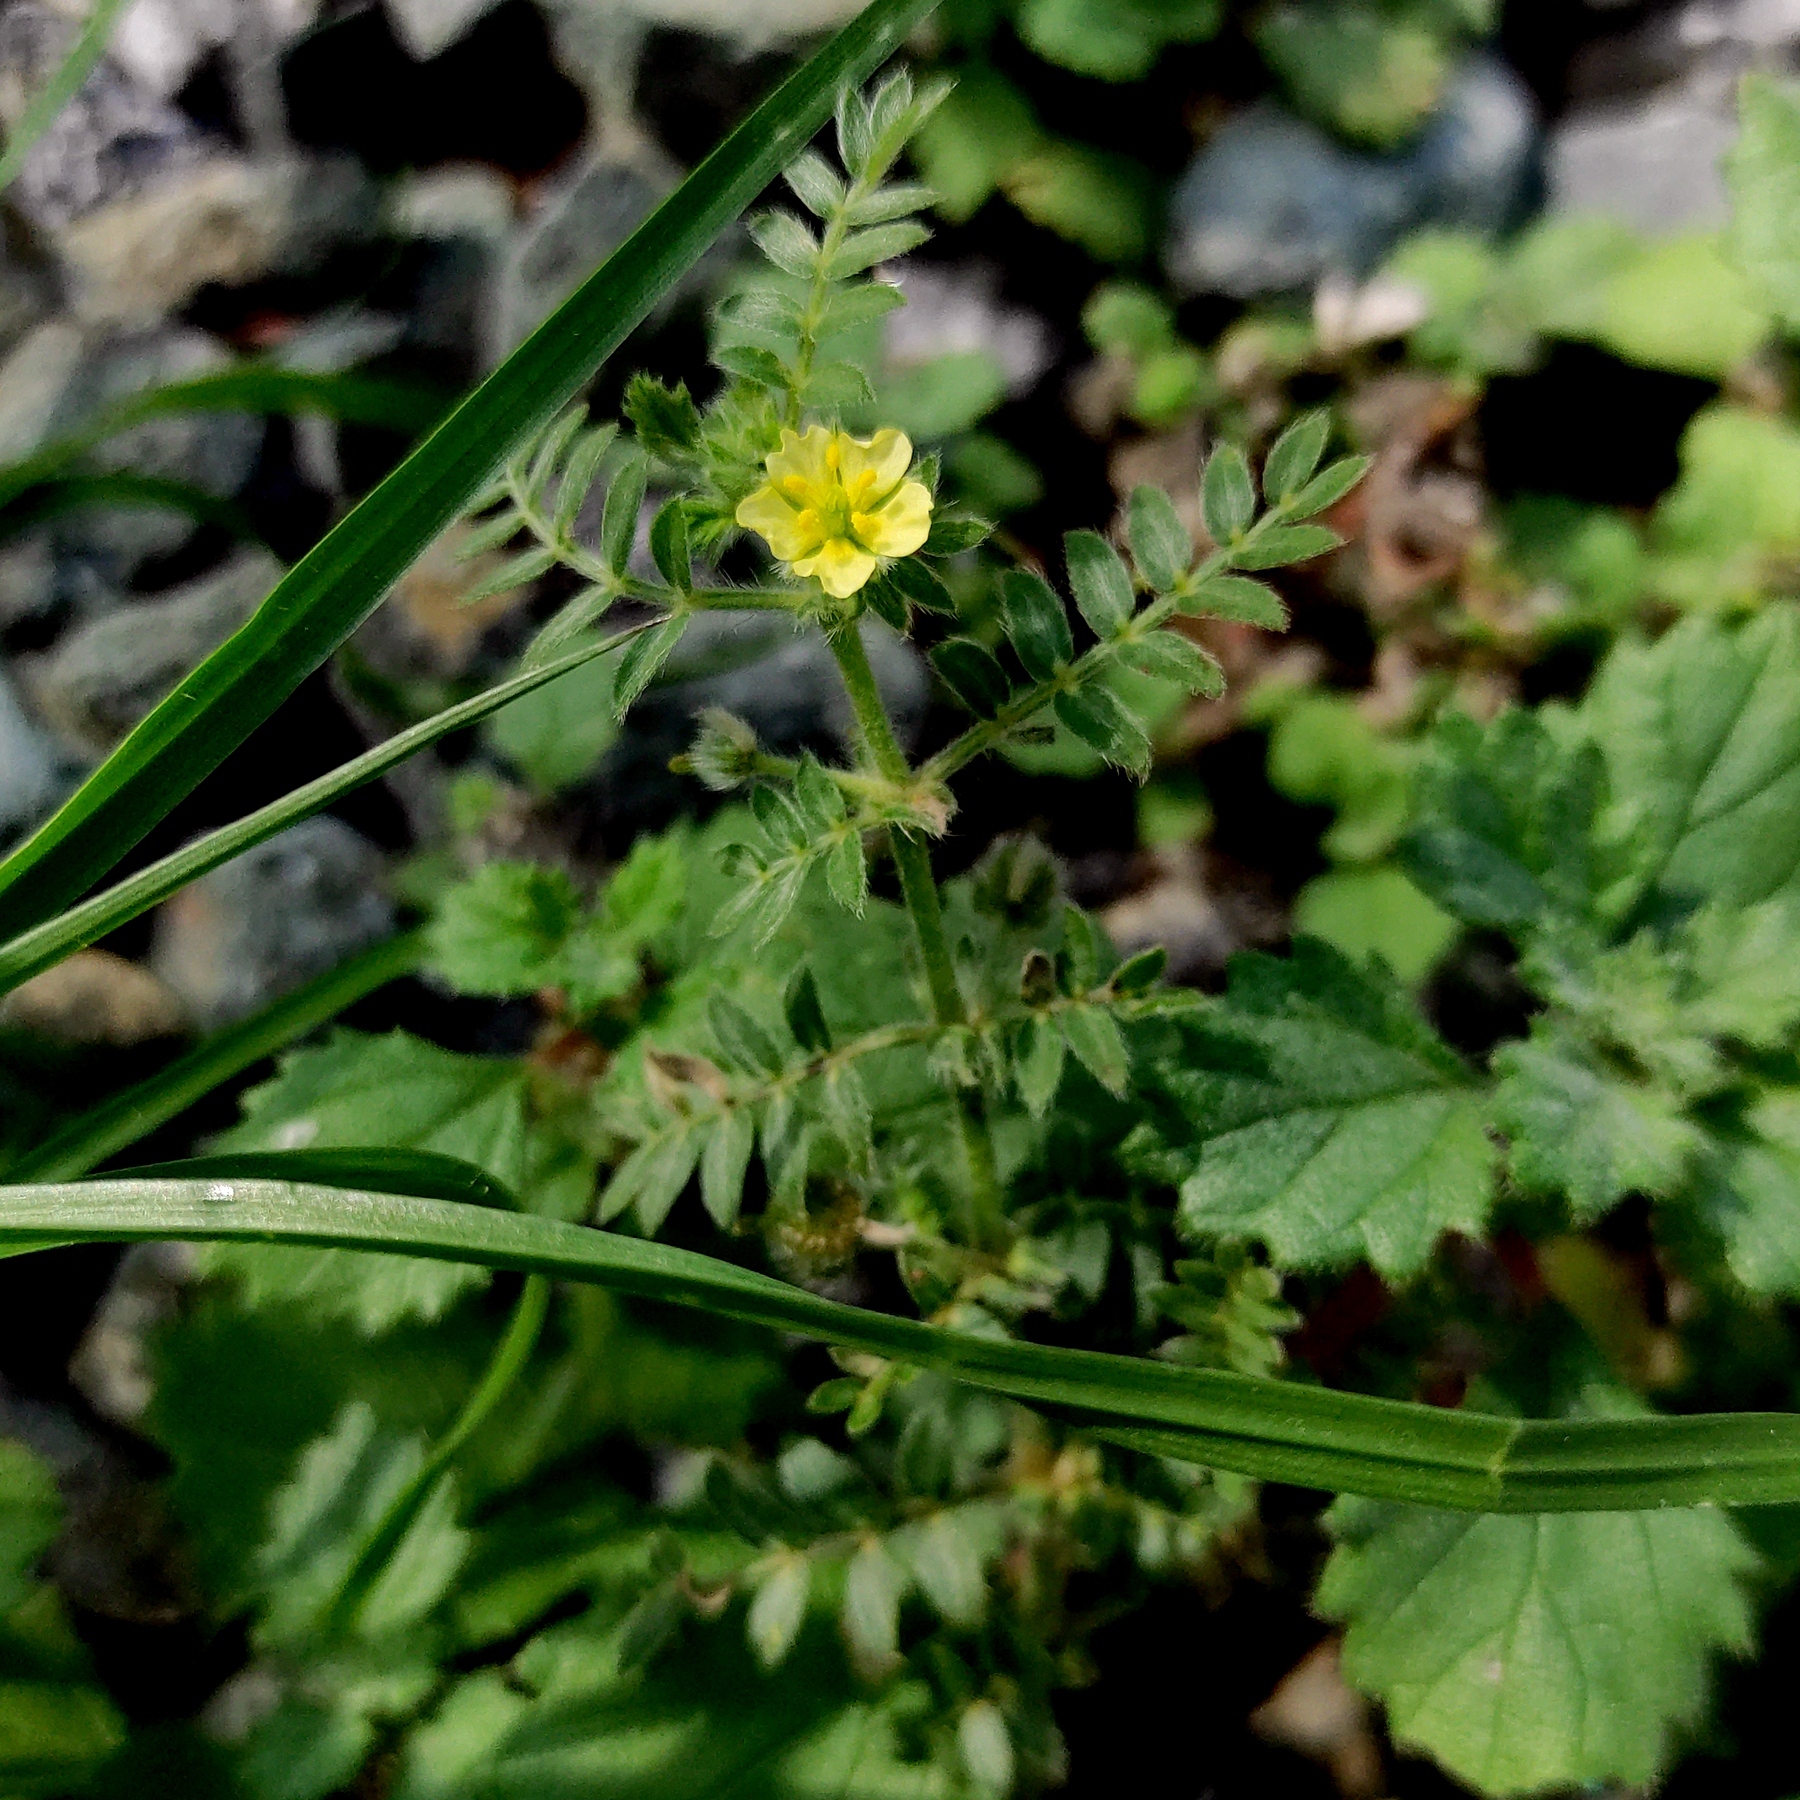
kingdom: Plantae
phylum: Tracheophyta
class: Magnoliopsida
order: Zygophyllales
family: Zygophyllaceae
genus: Tribulus
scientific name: Tribulus terrestris
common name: Puncturevine
